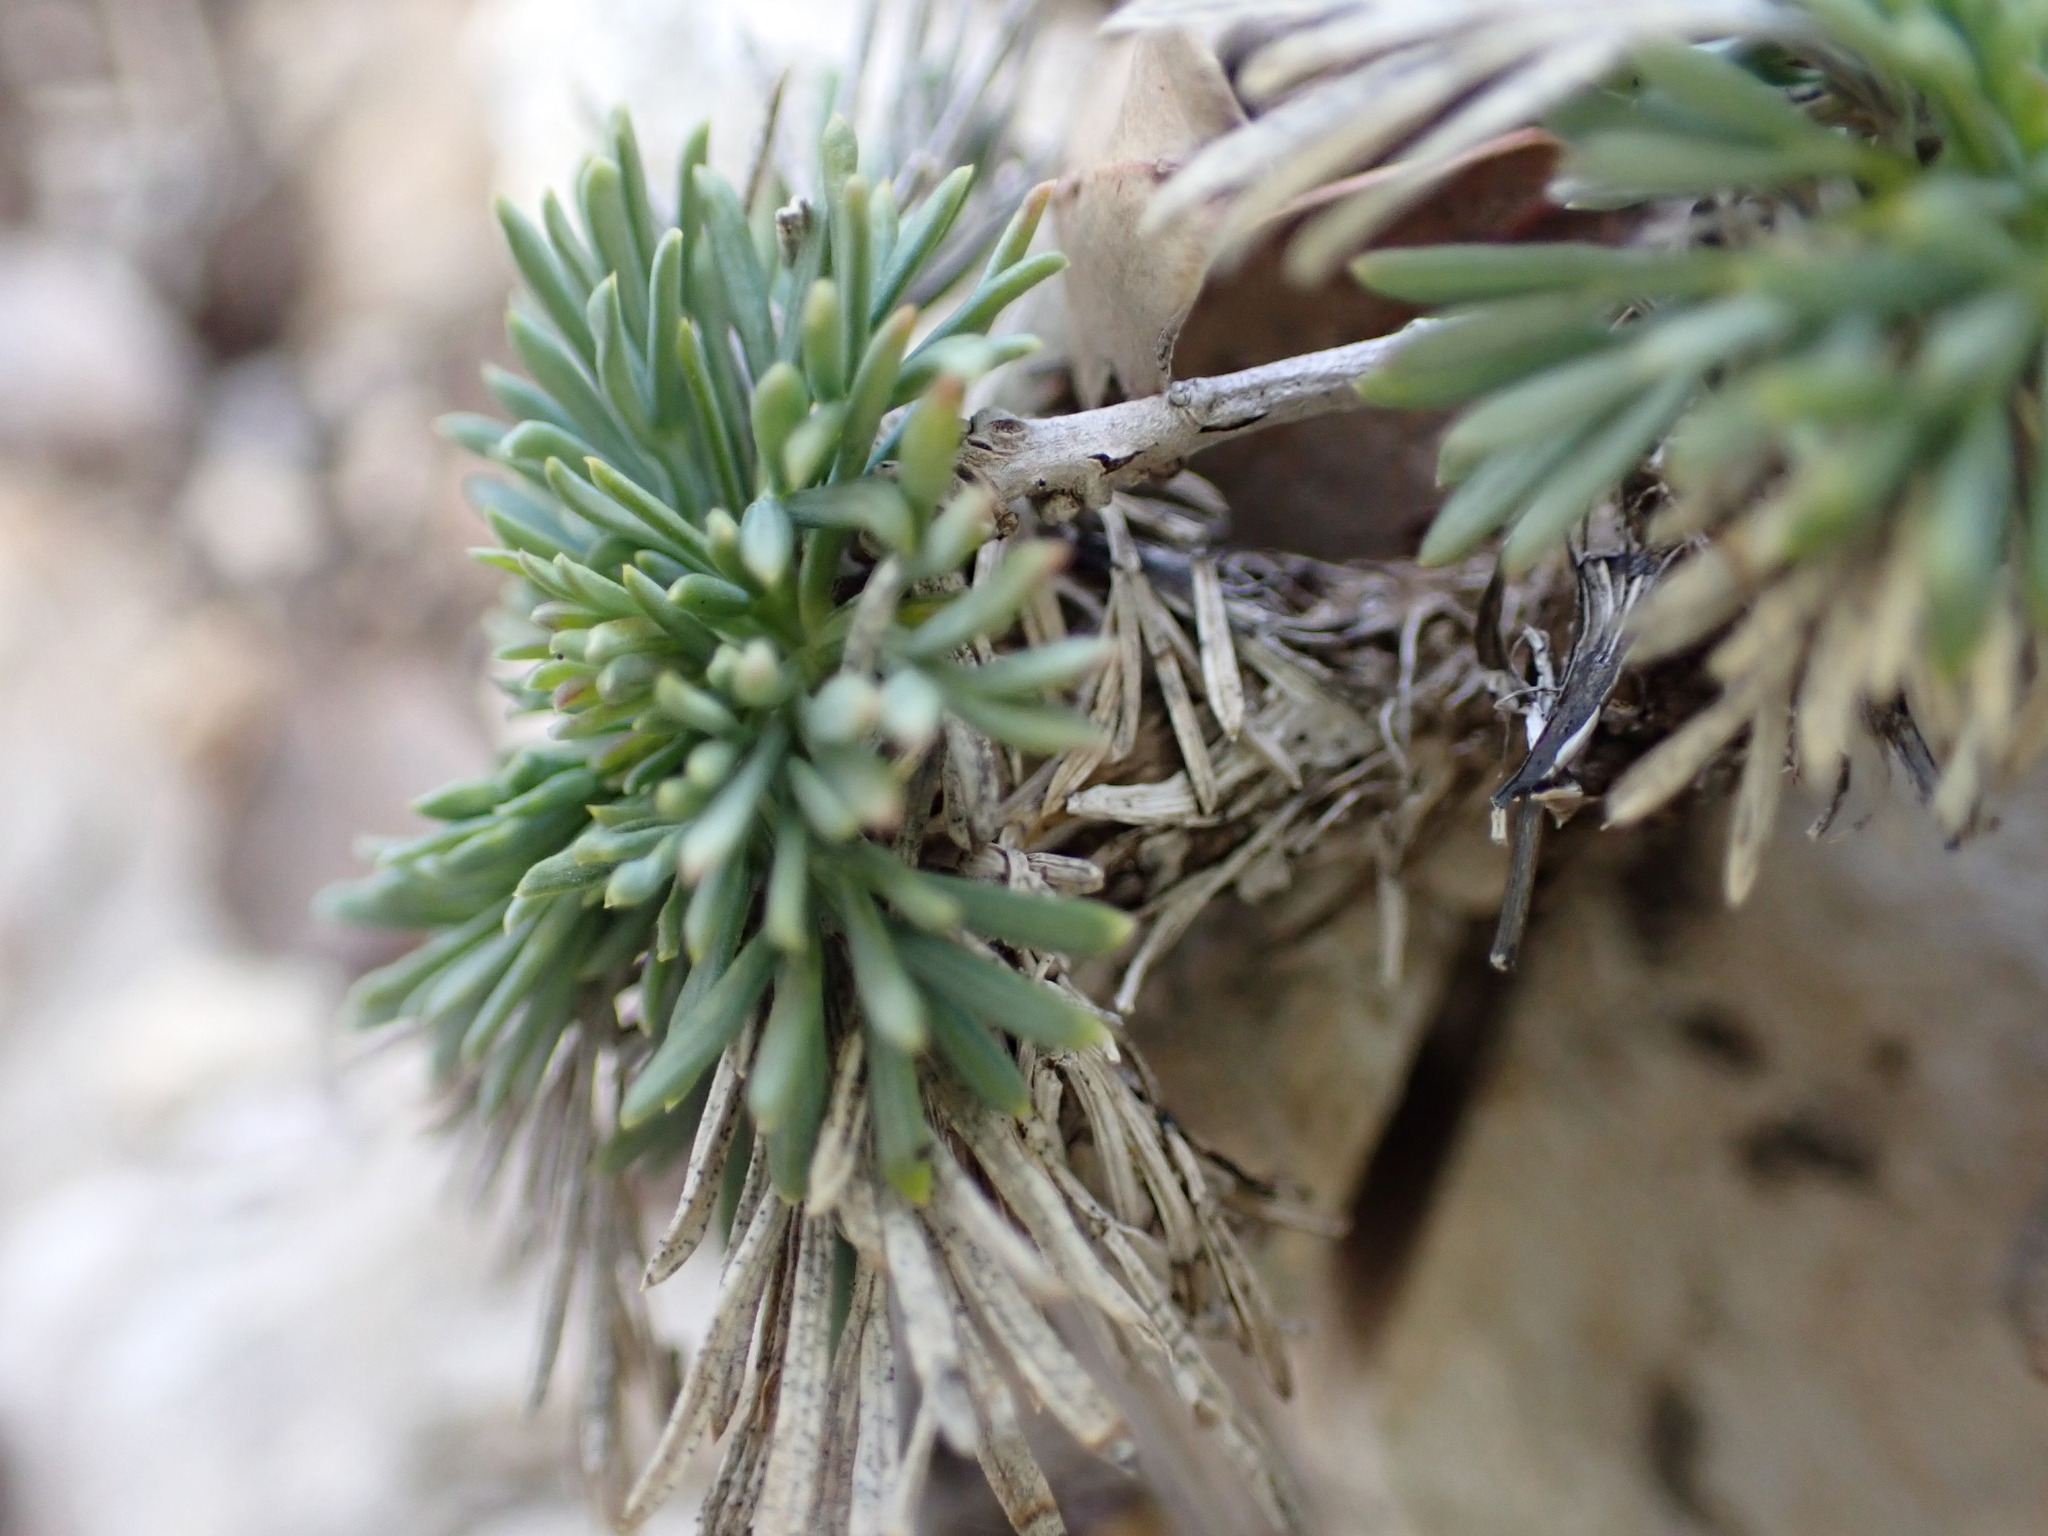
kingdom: Plantae
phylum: Tracheophyta
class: Magnoliopsida
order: Apiales
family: Apiaceae
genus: Seseli
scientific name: Seseli galloprovinciale
